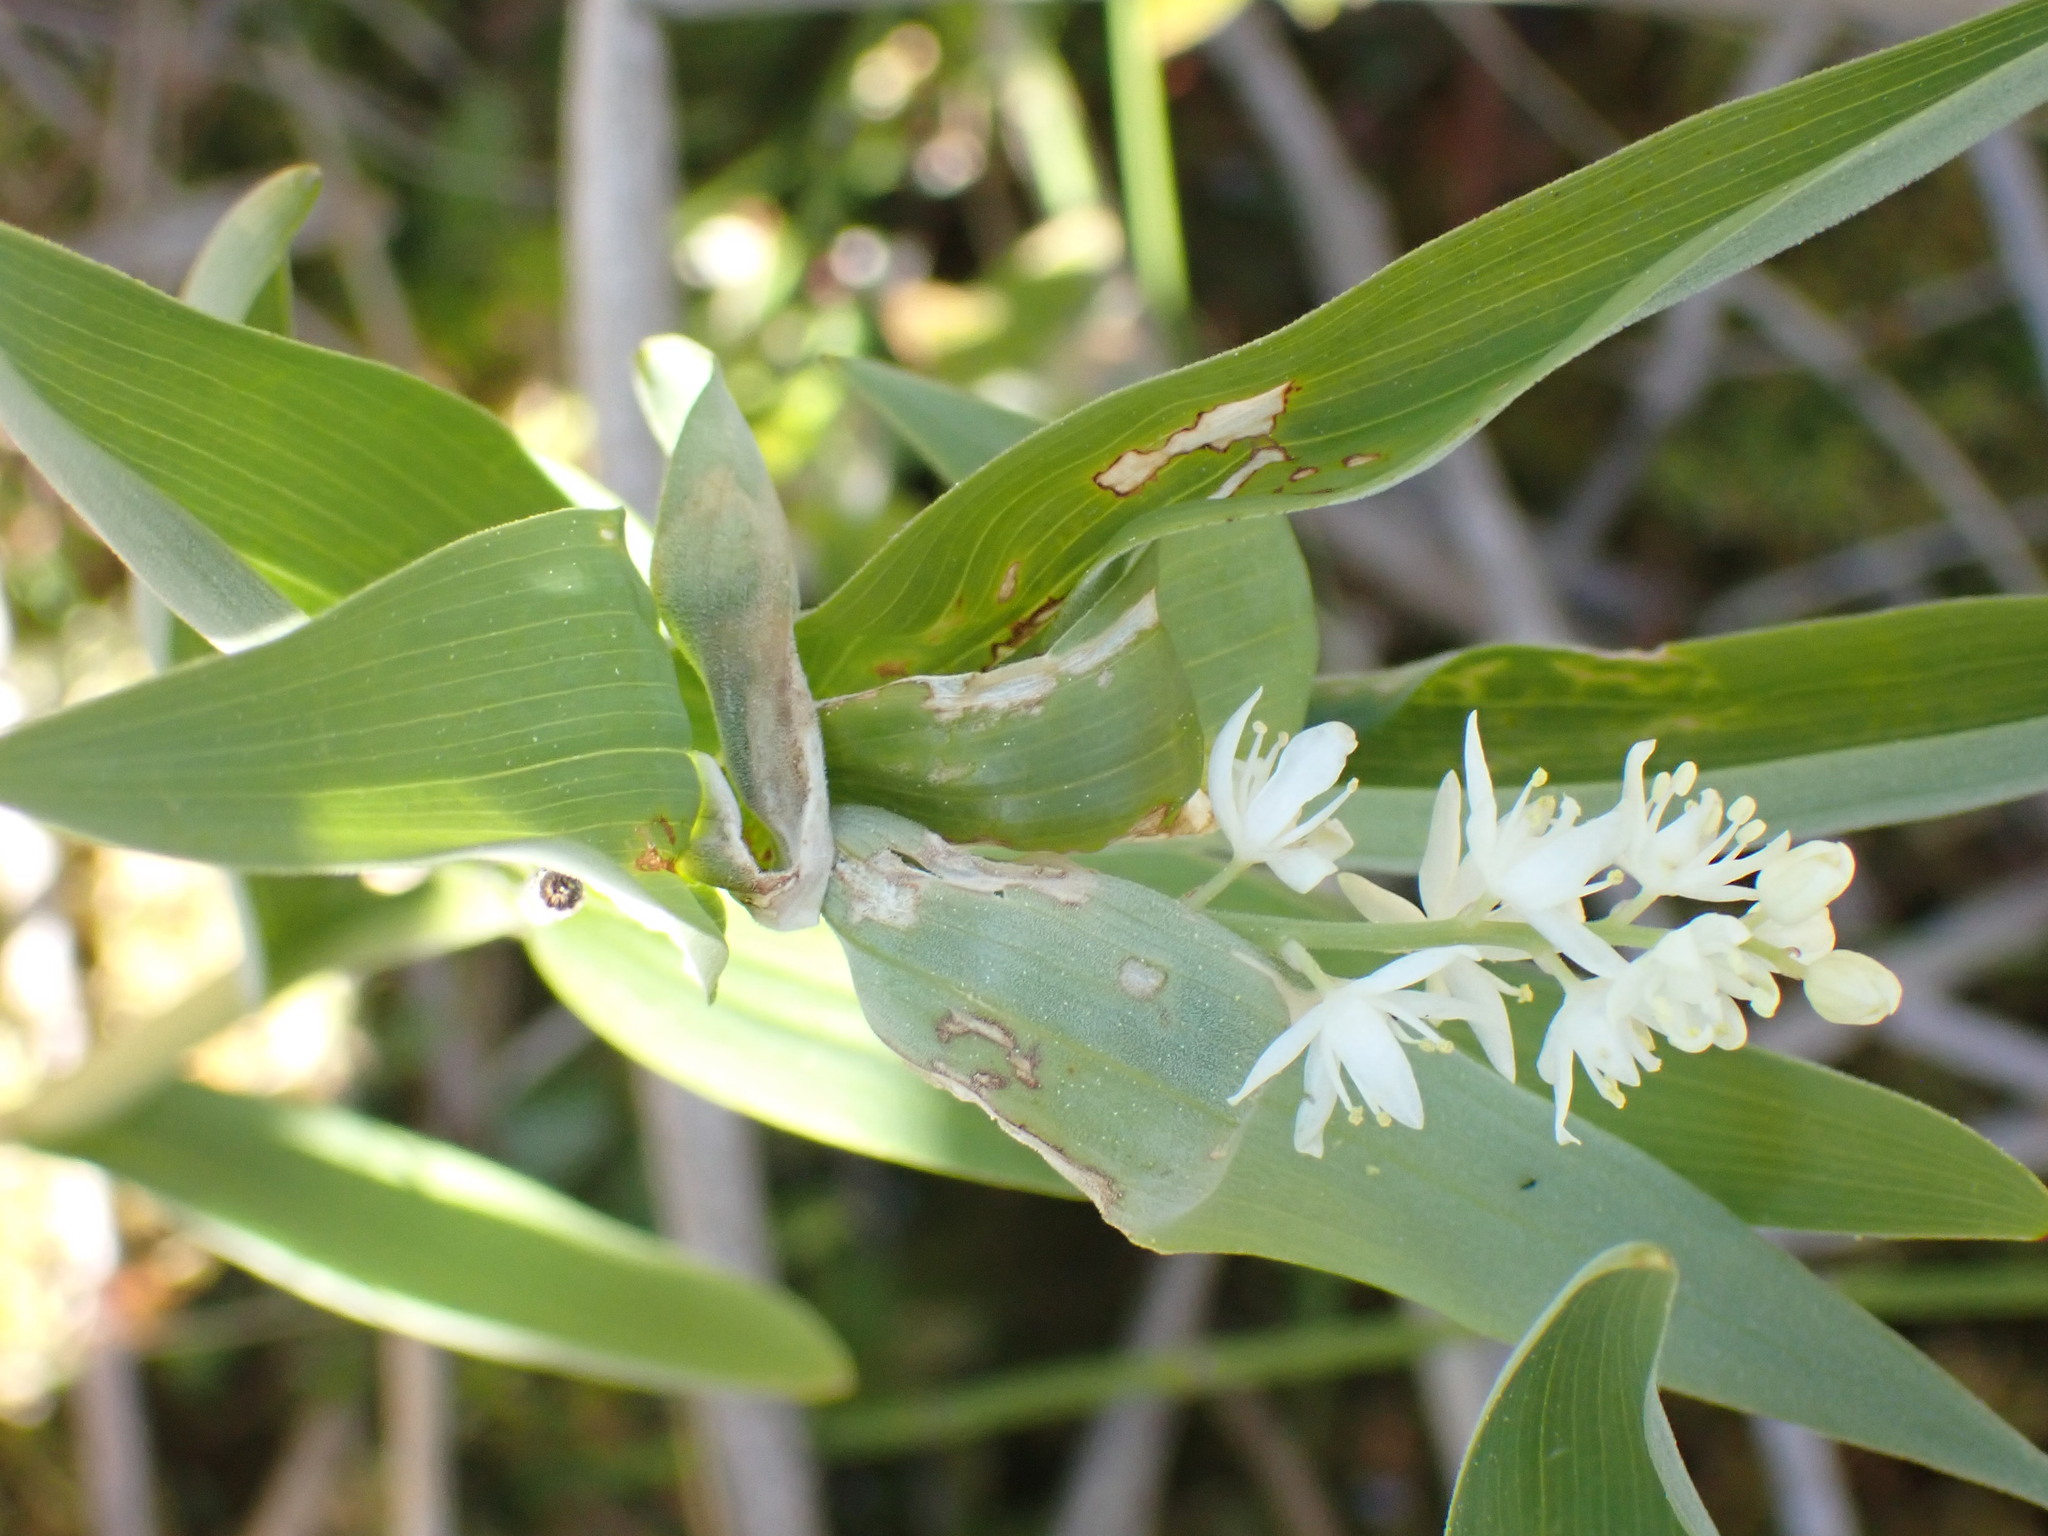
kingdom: Plantae
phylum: Tracheophyta
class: Liliopsida
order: Asparagales
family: Asparagaceae
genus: Maianthemum
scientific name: Maianthemum stellatum
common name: Little false solomon's seal
